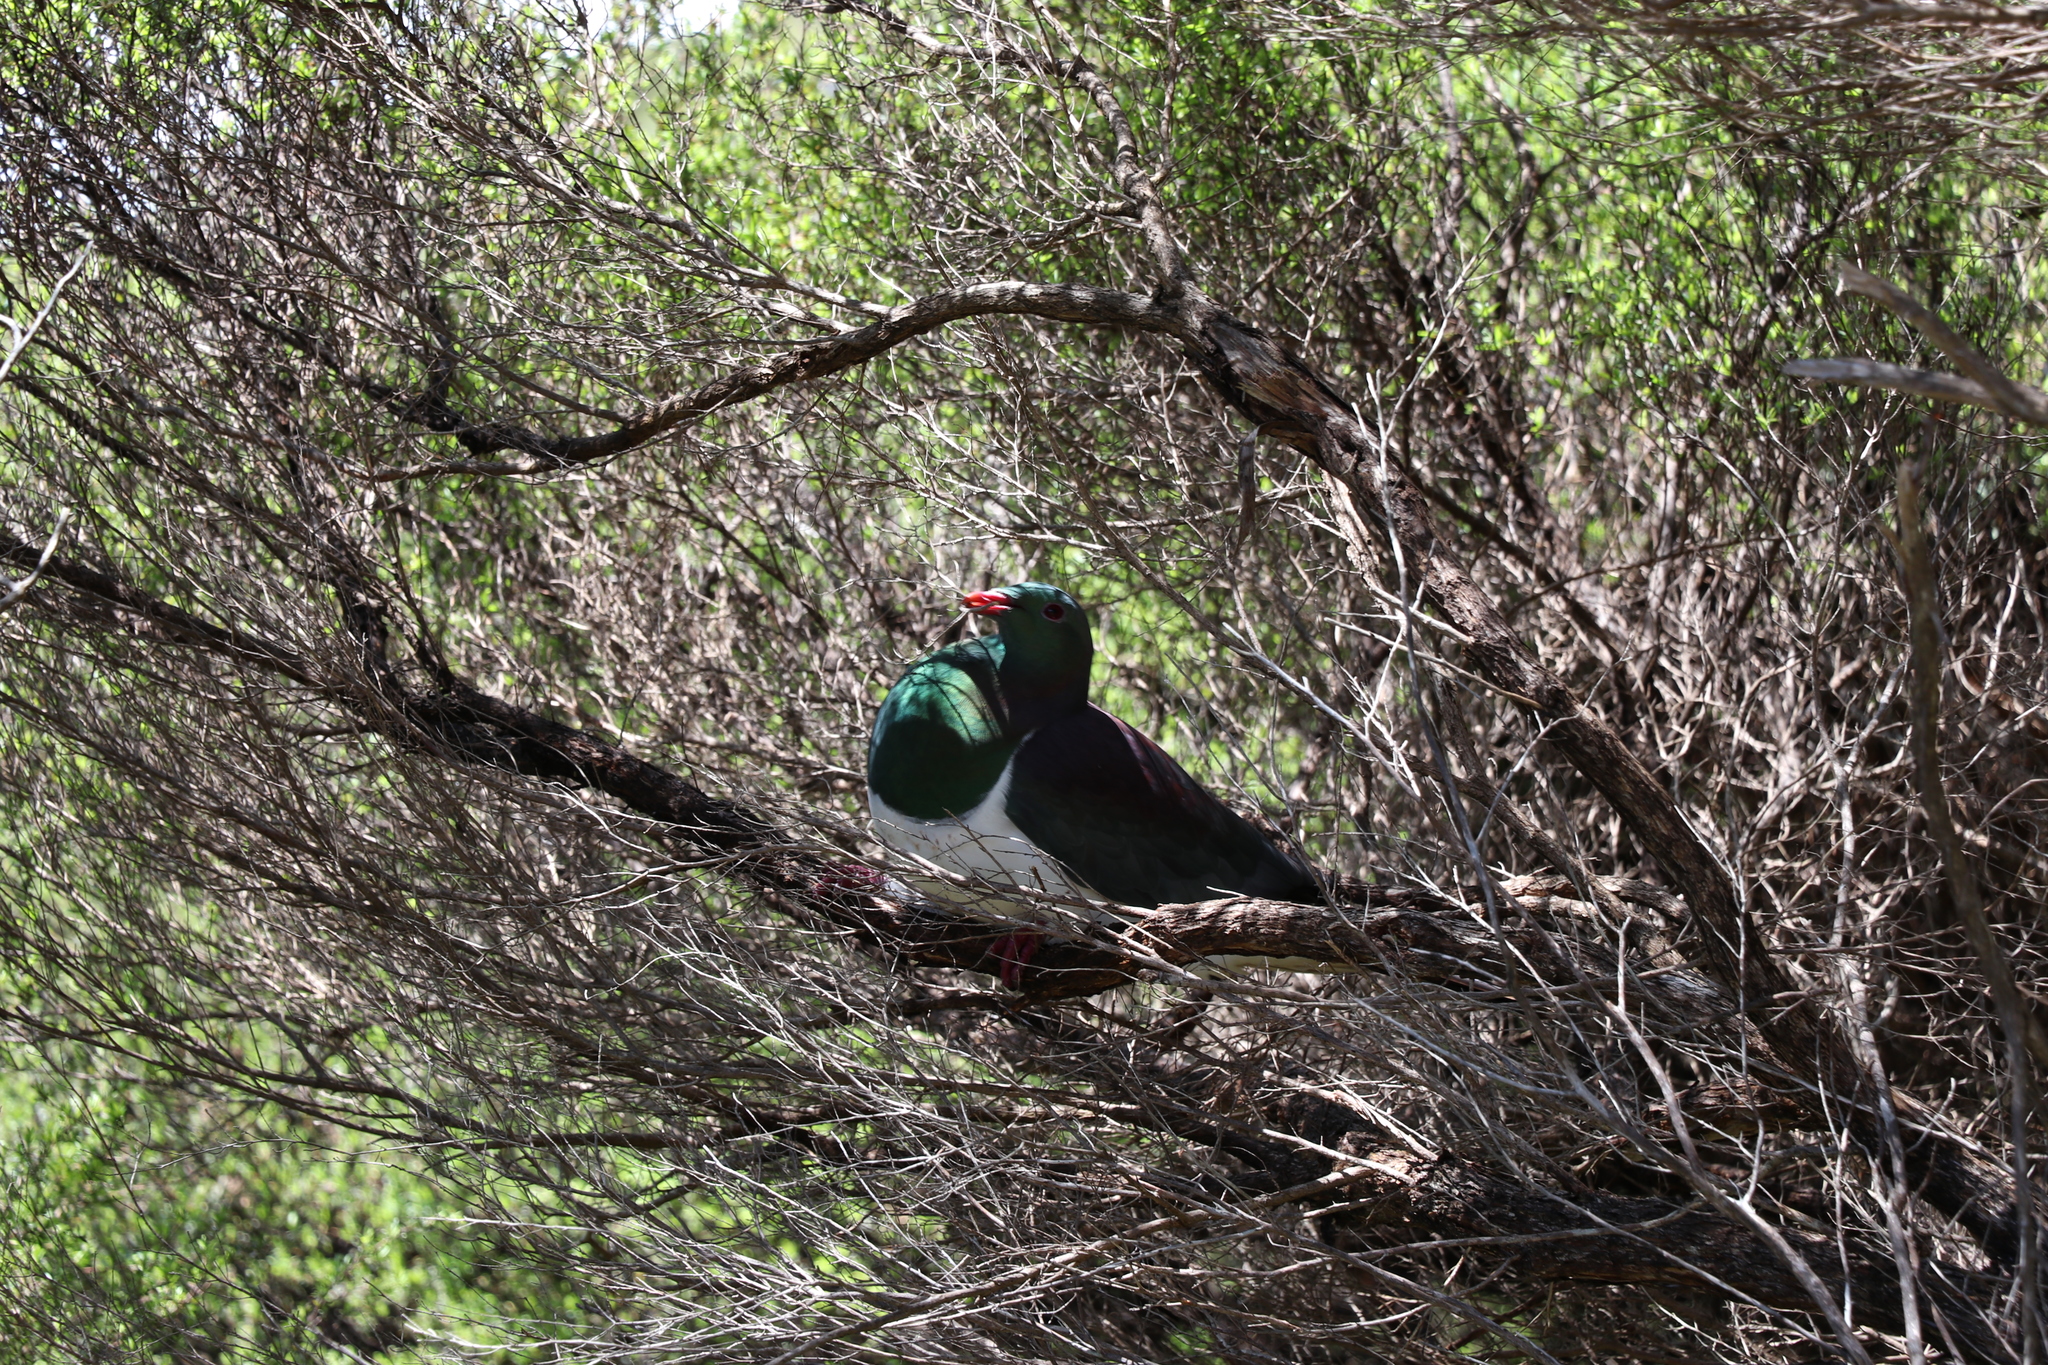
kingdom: Animalia
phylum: Chordata
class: Aves
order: Columbiformes
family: Columbidae
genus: Hemiphaga
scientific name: Hemiphaga novaeseelandiae
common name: New zealand pigeon
